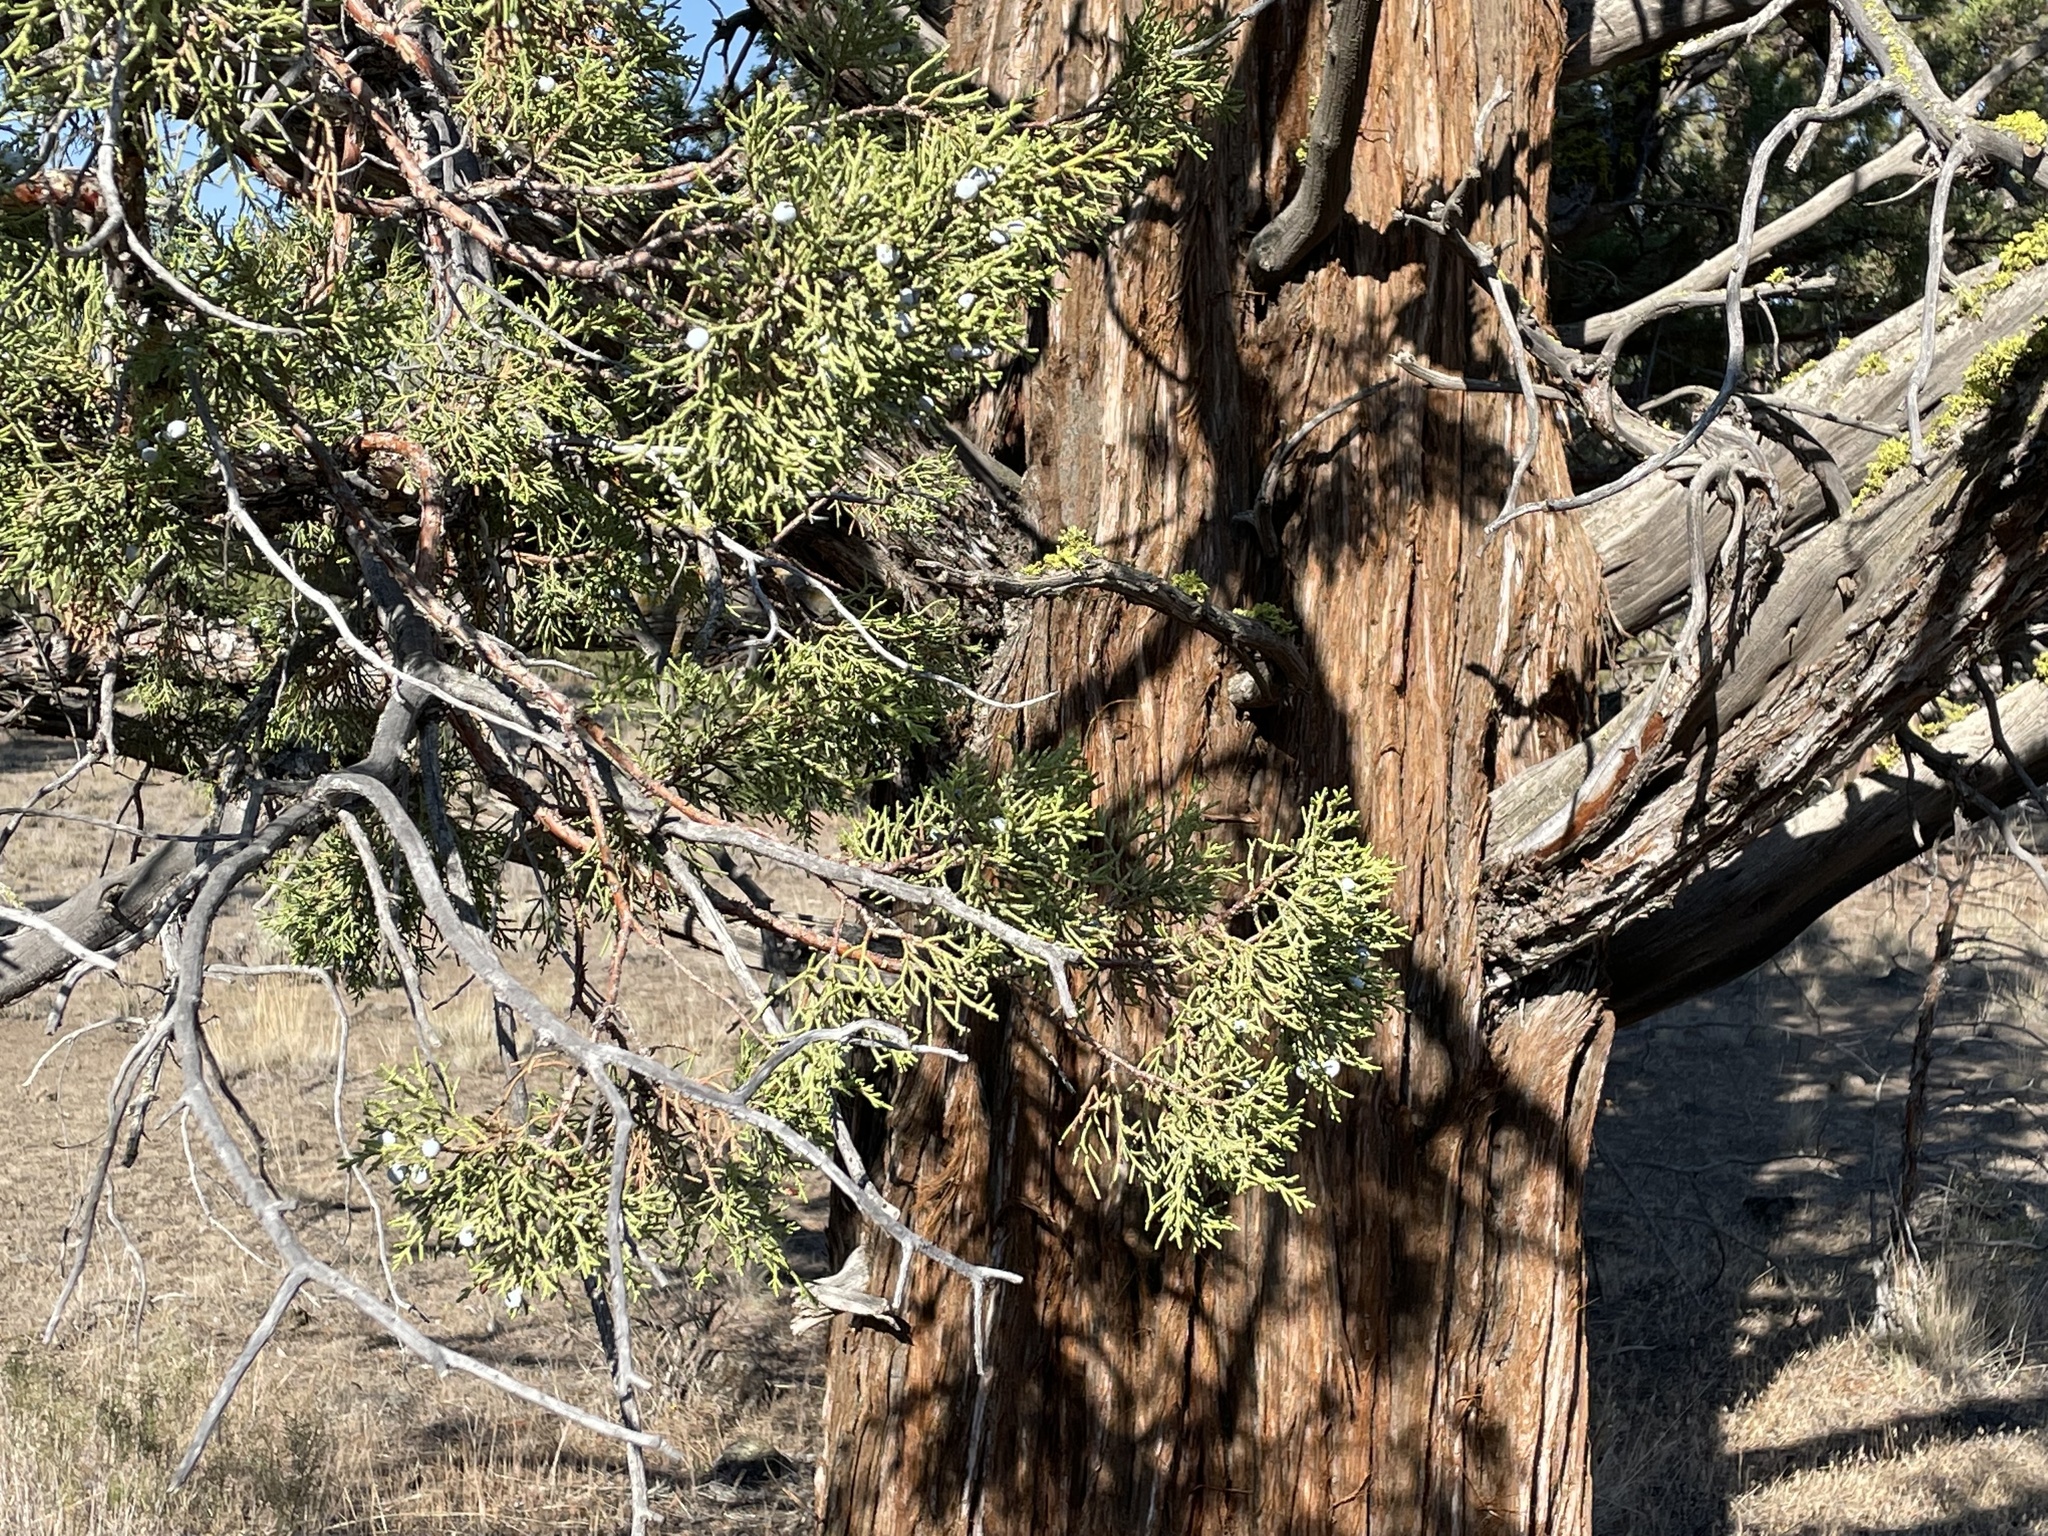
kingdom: Plantae
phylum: Tracheophyta
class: Pinopsida
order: Pinales
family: Cupressaceae
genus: Juniperus
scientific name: Juniperus occidentalis
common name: Western juniper
